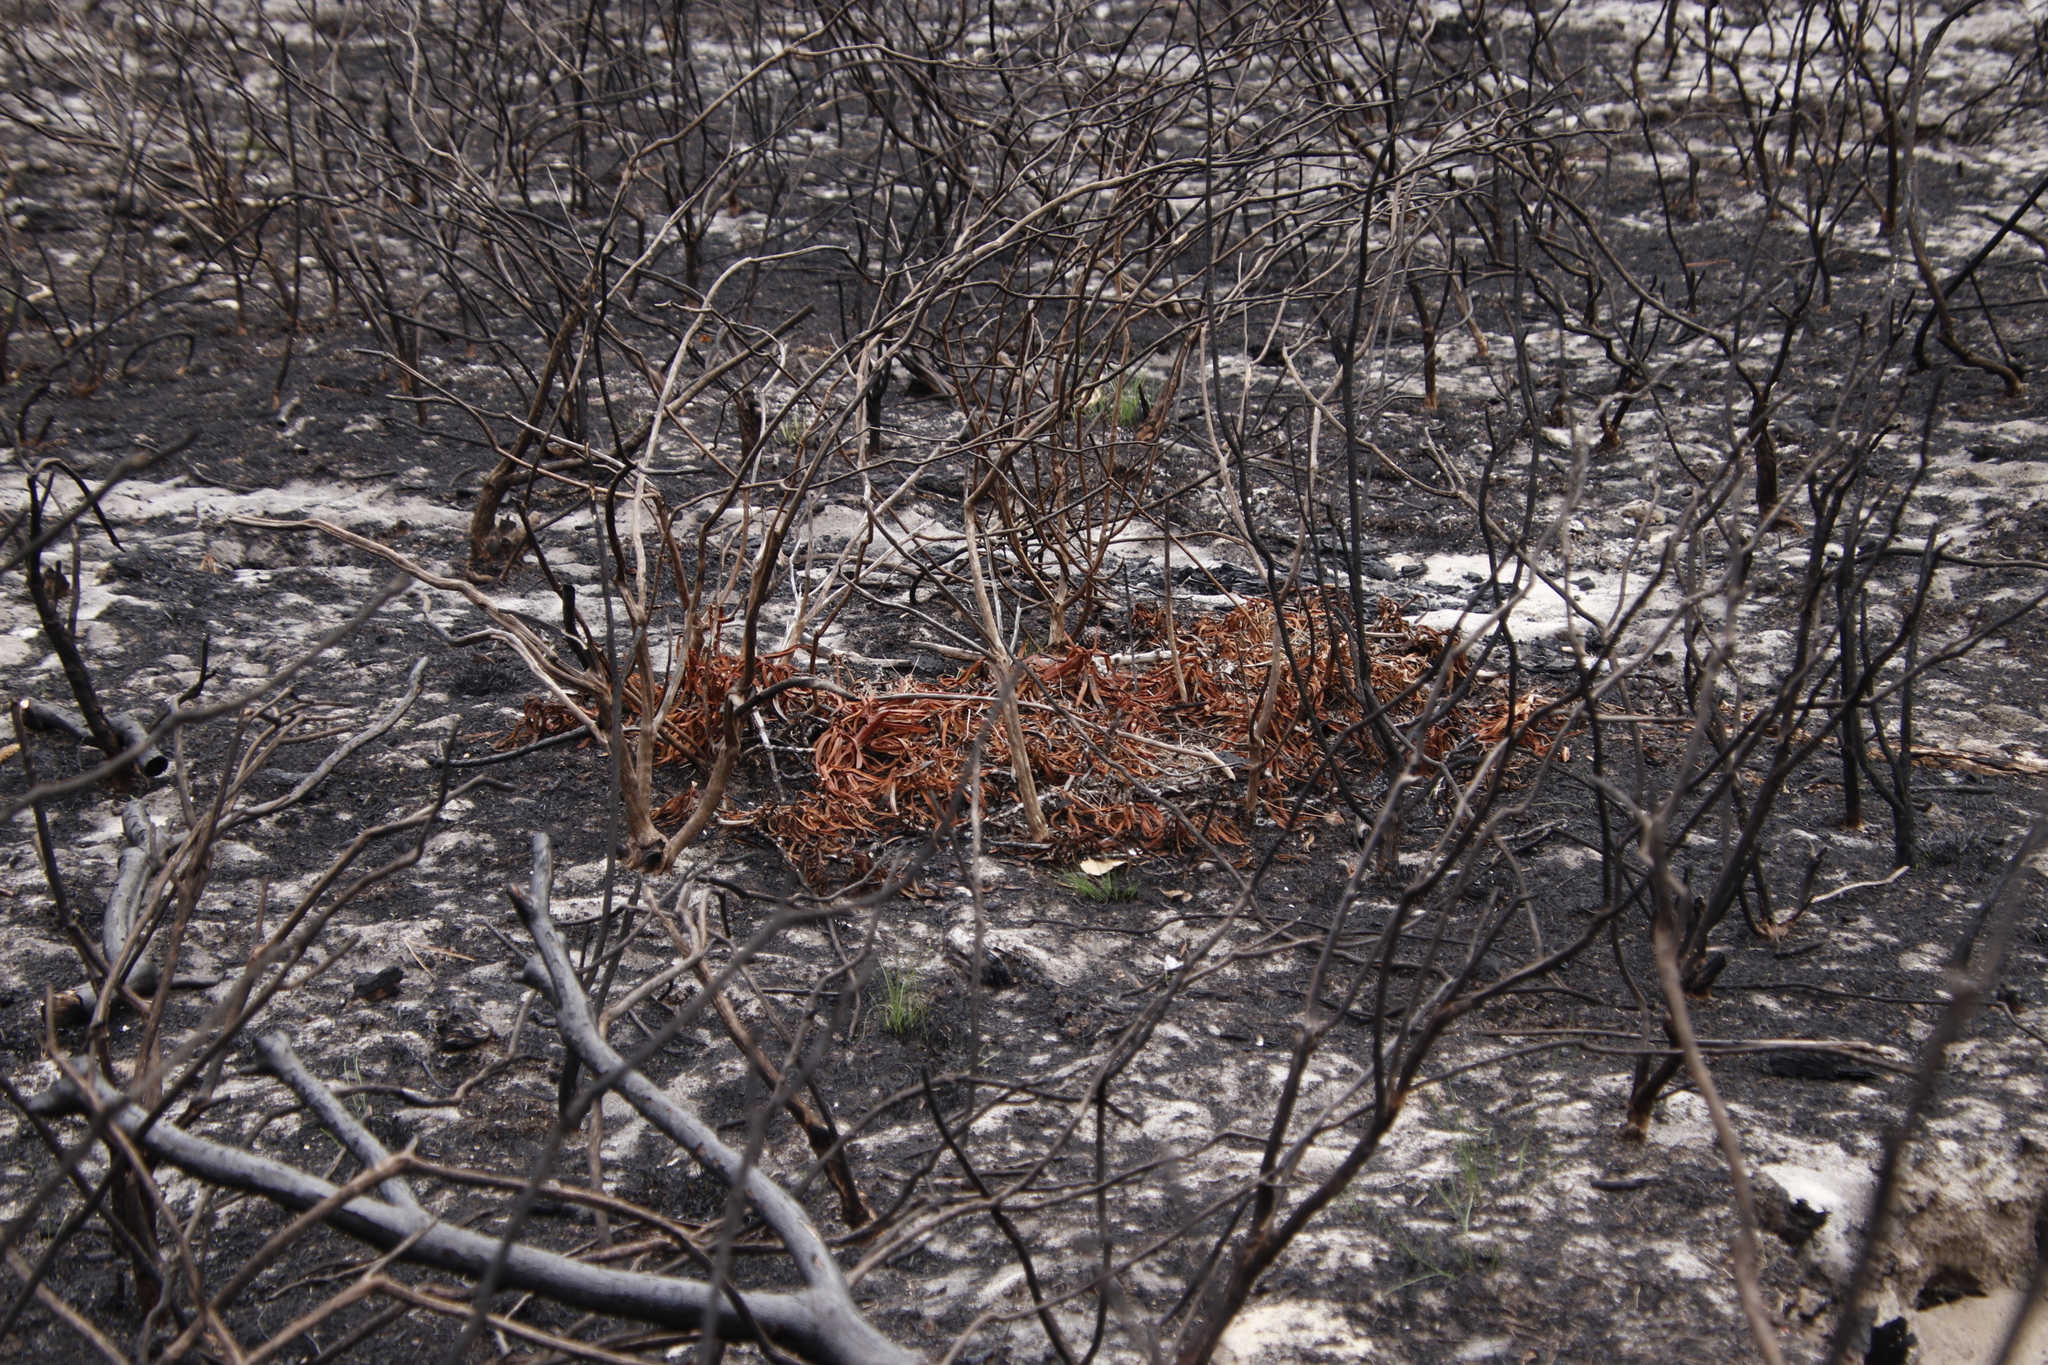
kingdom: Plantae
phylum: Tracheophyta
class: Magnoliopsida
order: Caryophyllales
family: Aizoaceae
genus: Carpobrotus
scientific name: Carpobrotus edulis
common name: Hottentot-fig
